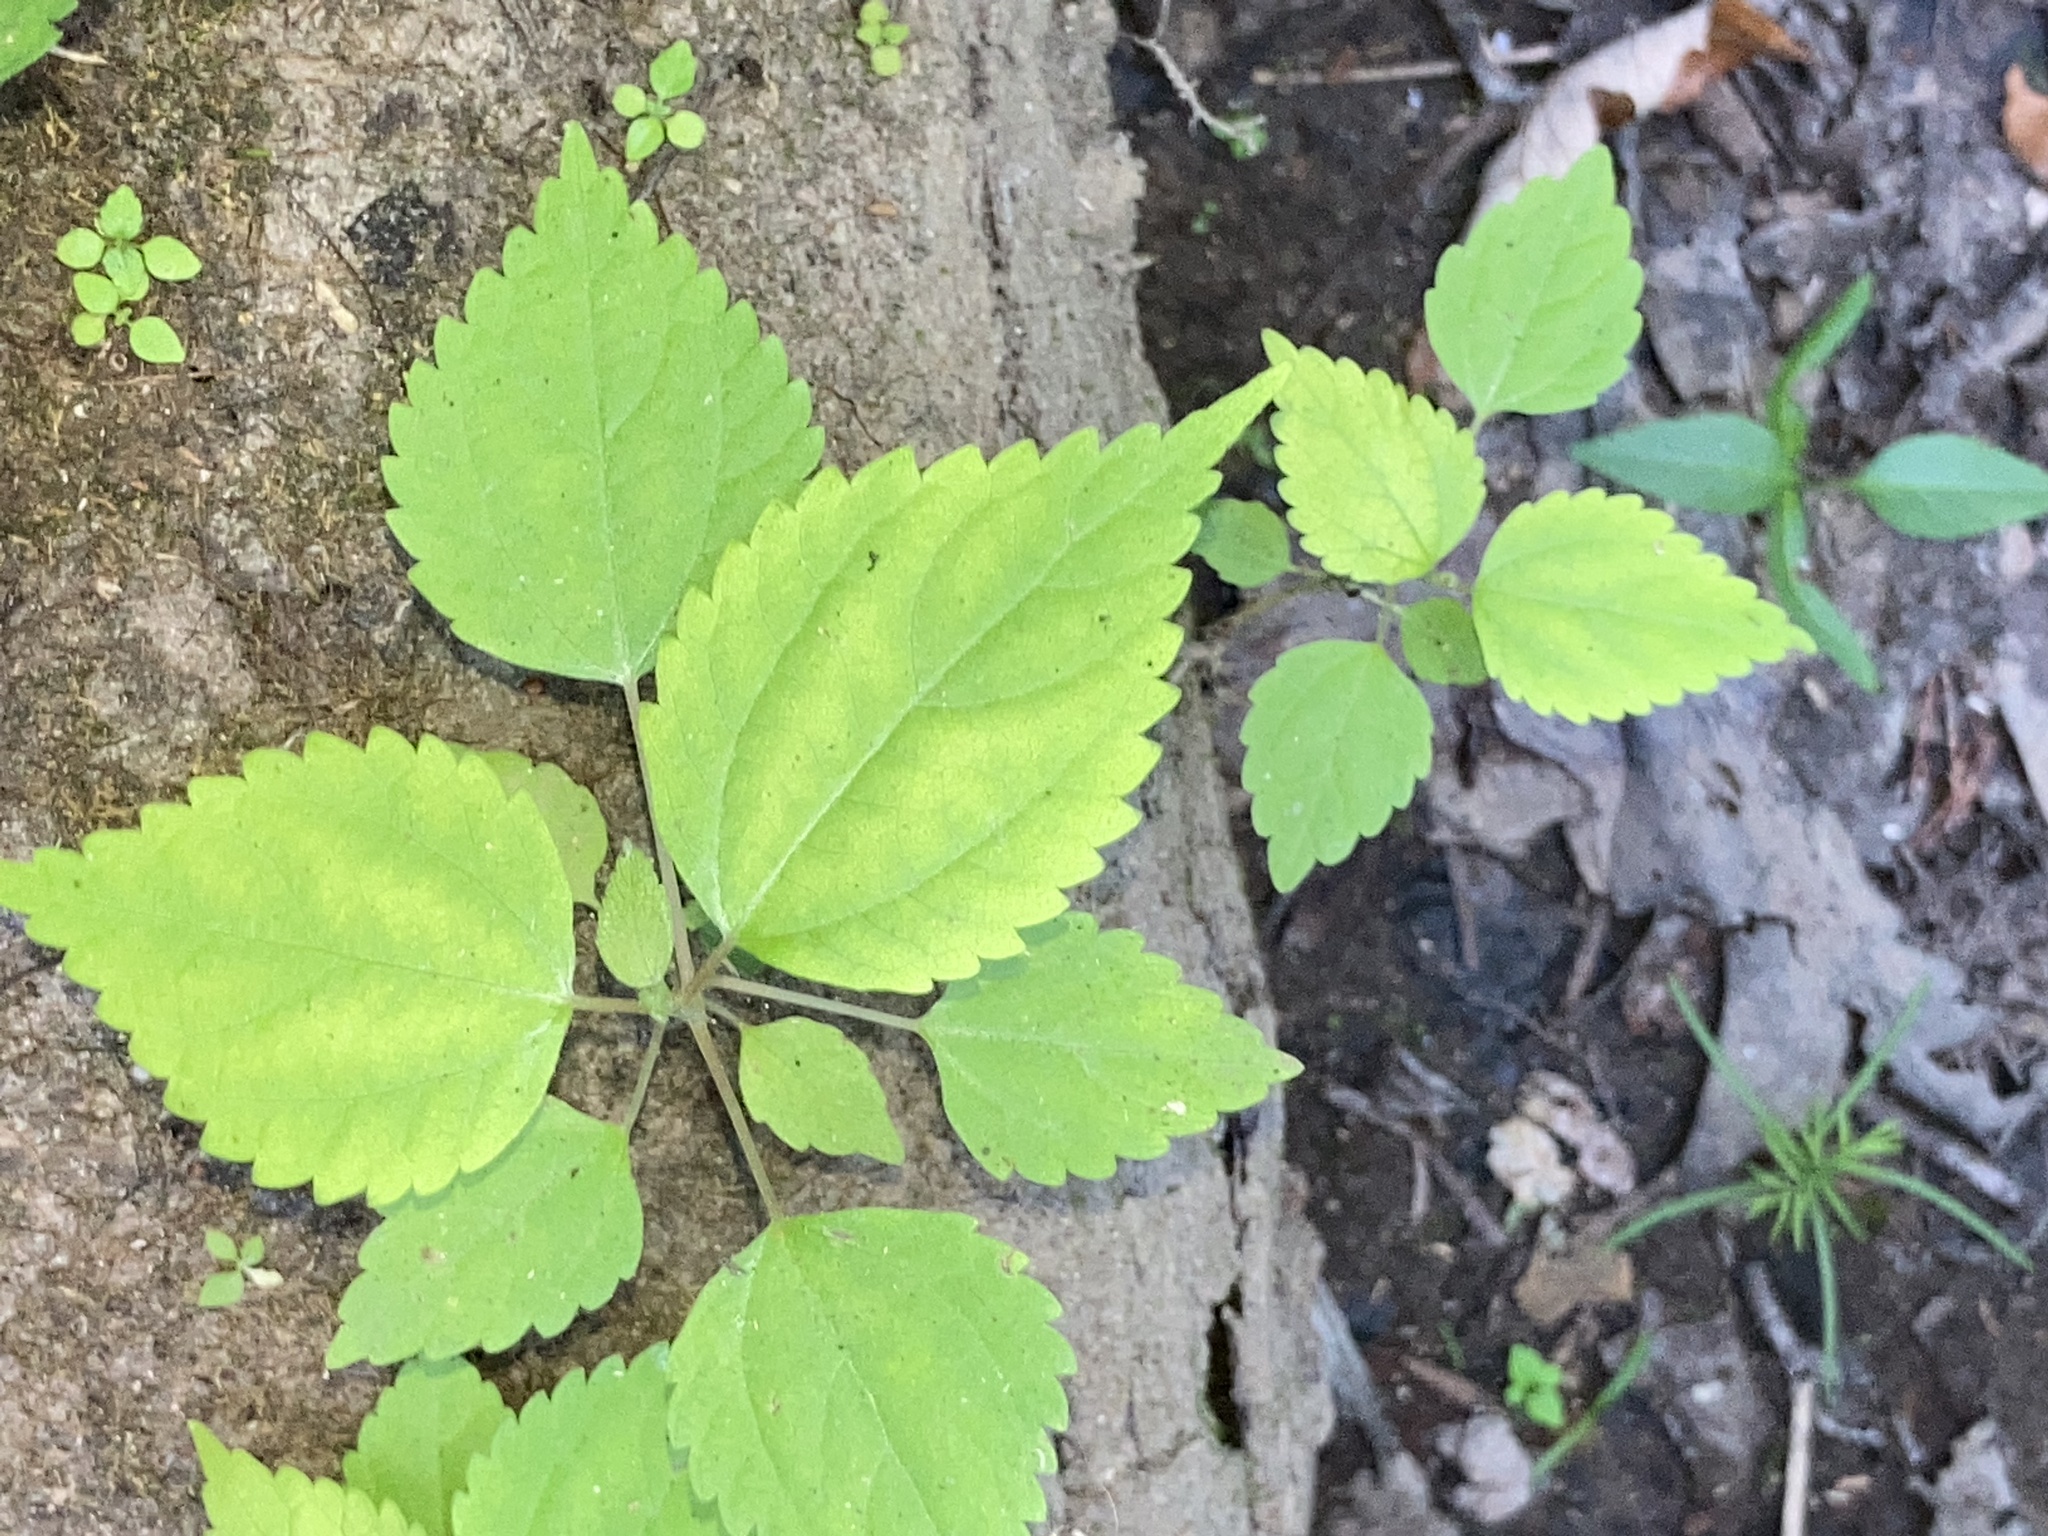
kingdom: Plantae
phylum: Tracheophyta
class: Magnoliopsida
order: Rosales
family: Urticaceae
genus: Boehmeria
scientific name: Boehmeria cylindrica
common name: Bog-hemp
